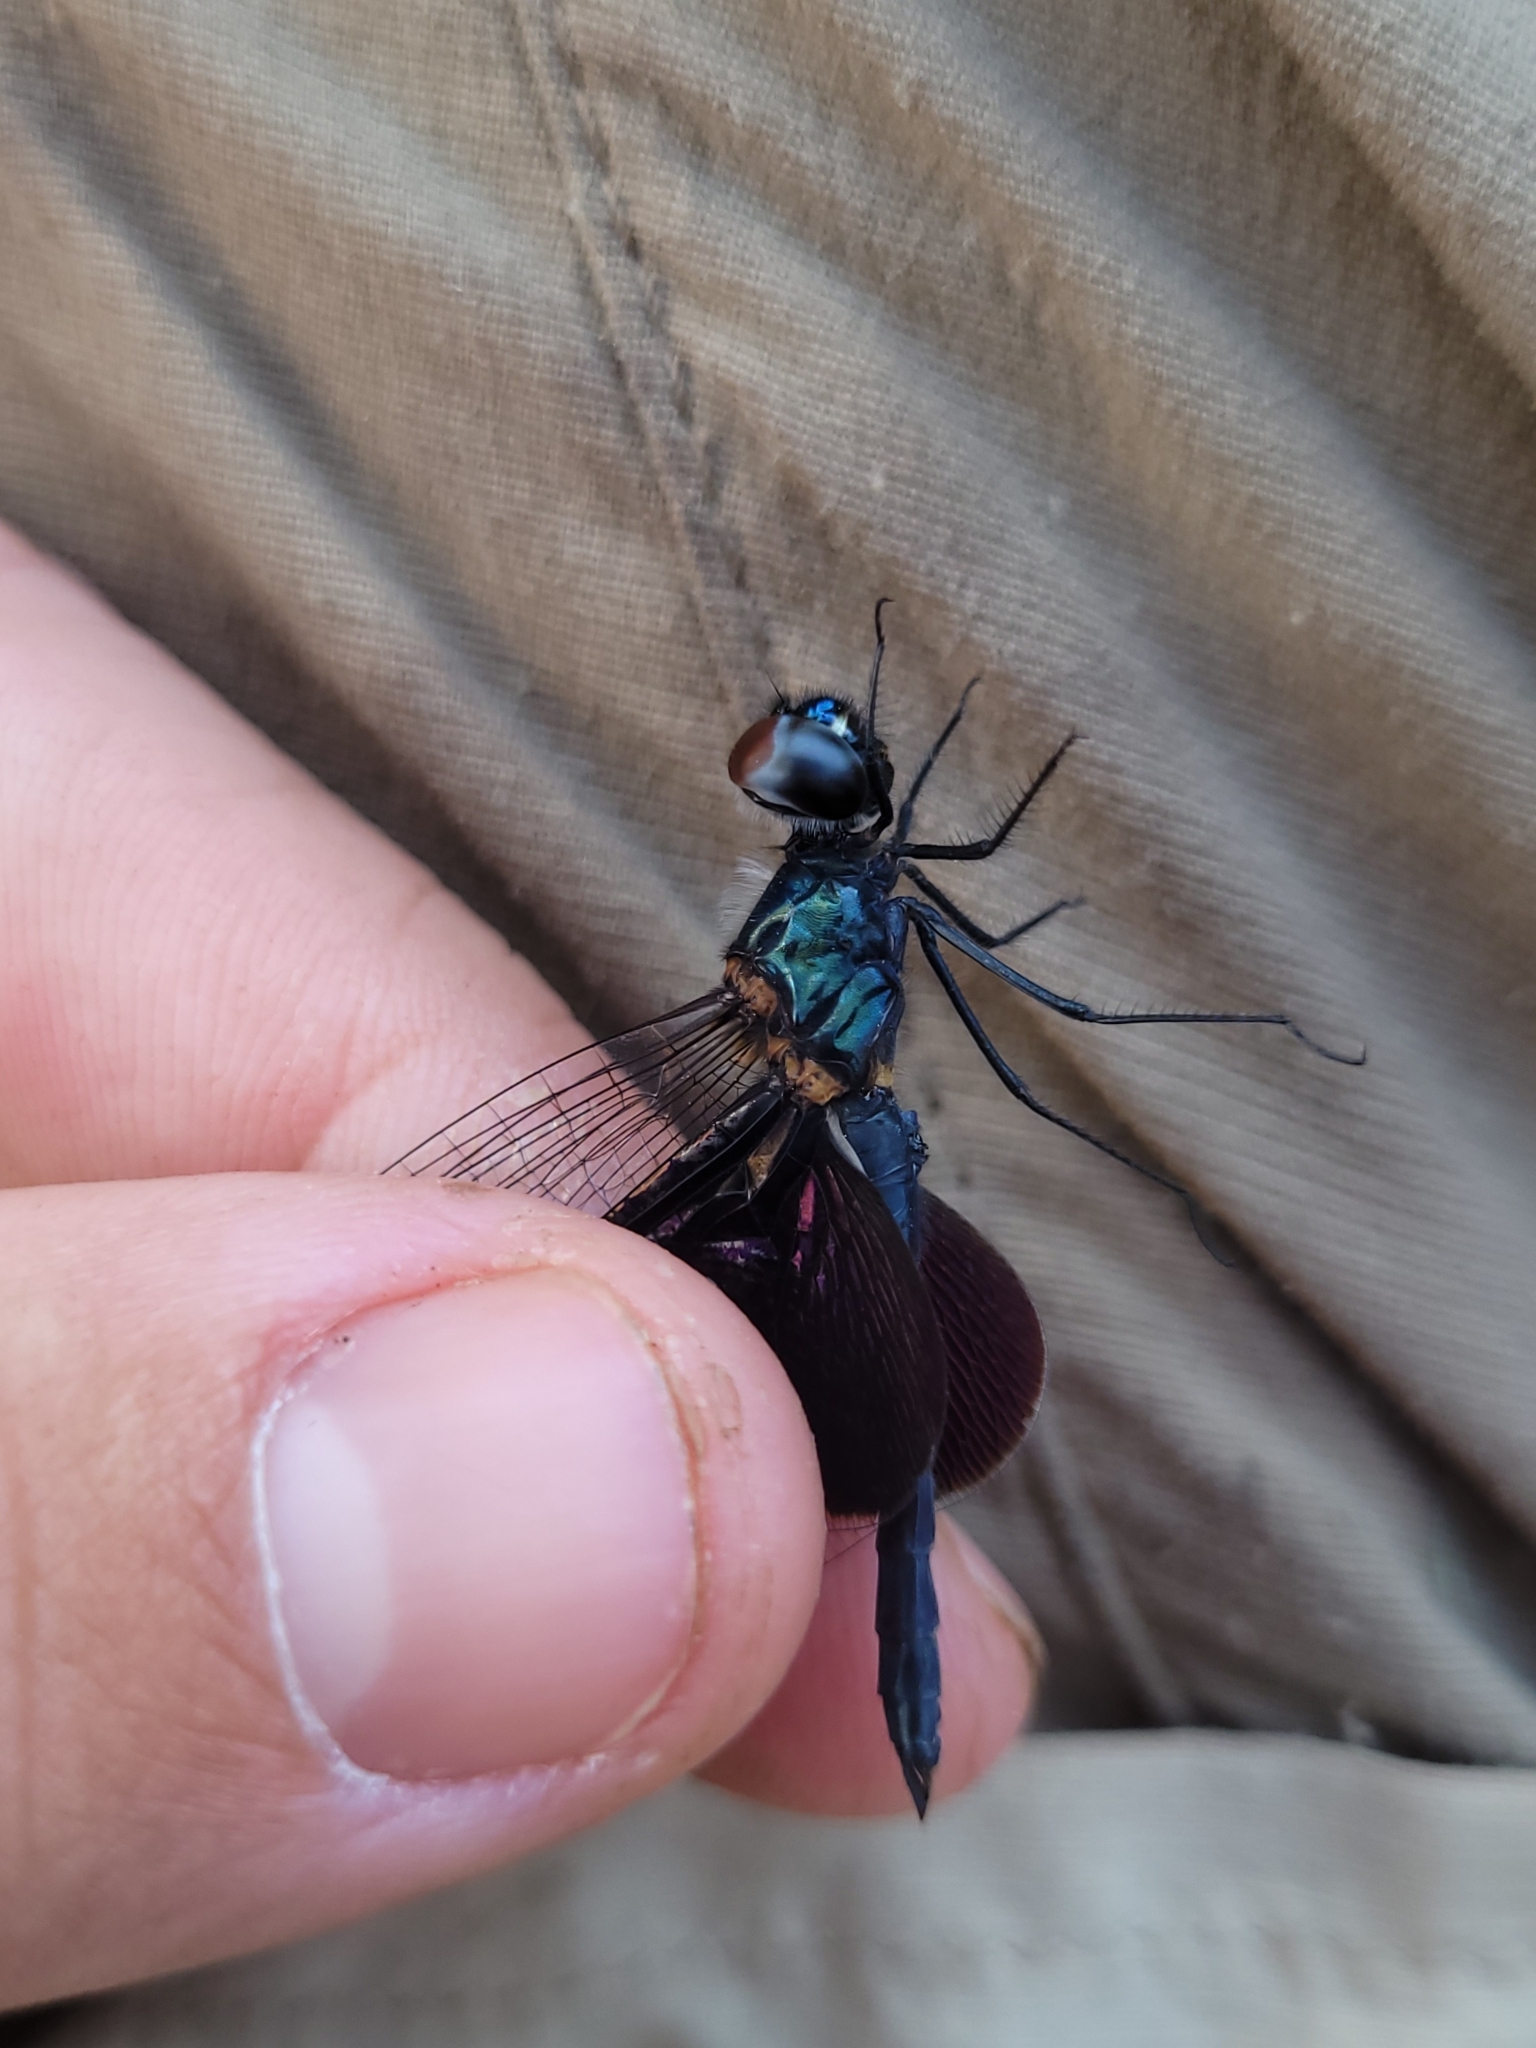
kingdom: Animalia
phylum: Arthropoda
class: Insecta
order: Odonata
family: Libellulidae
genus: Rhyothemis
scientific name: Rhyothemis semihyalina
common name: Phantom flutterer
